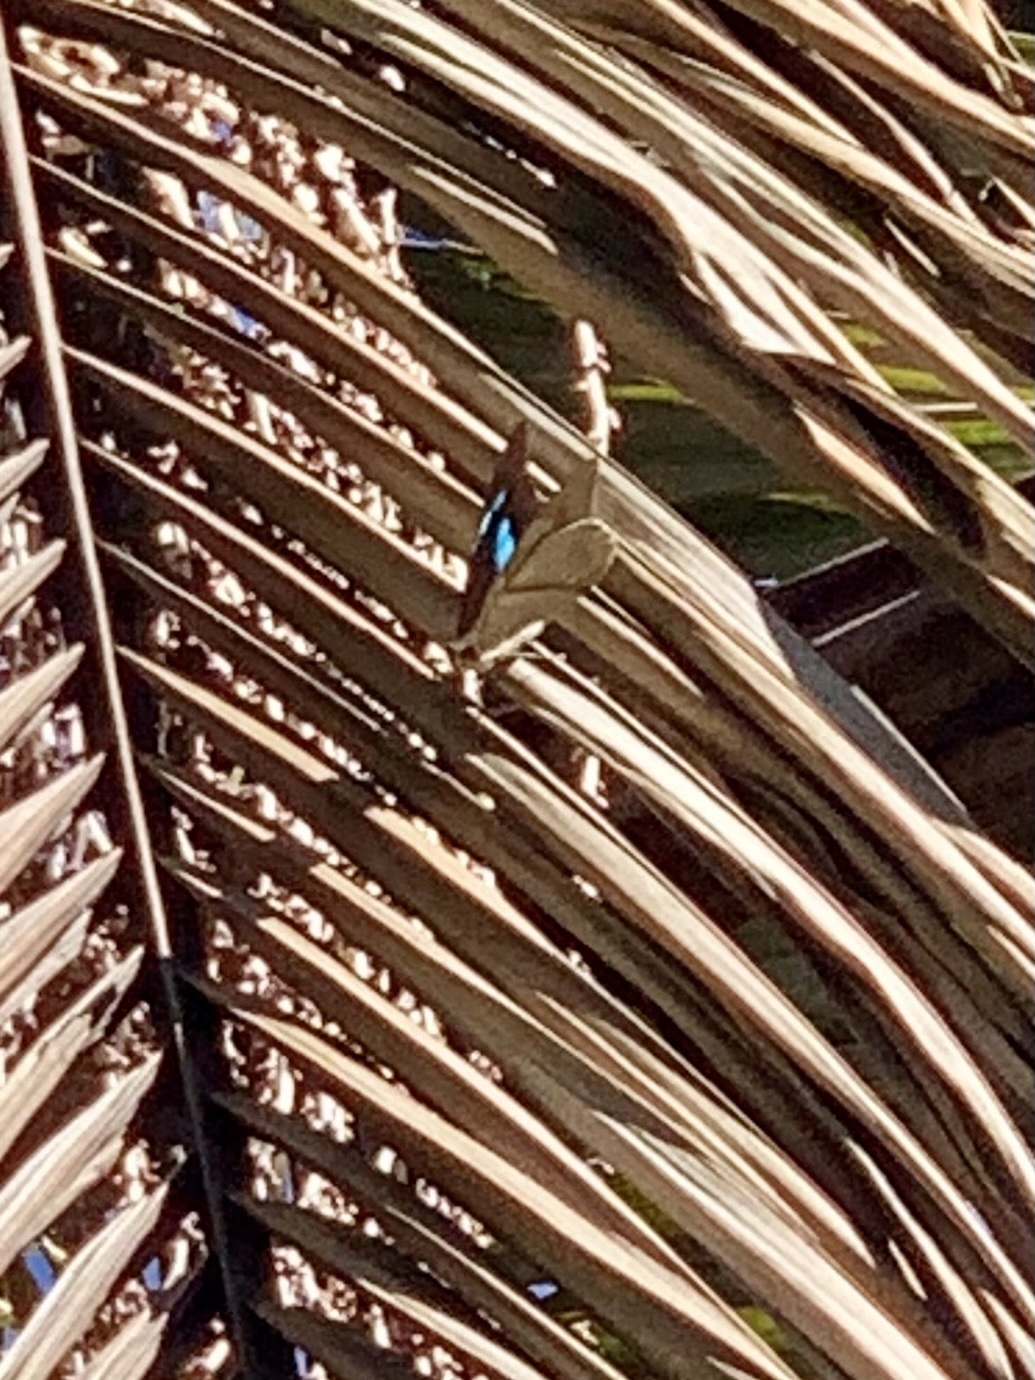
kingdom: Animalia
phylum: Arthropoda
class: Insecta
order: Lepidoptera
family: Nymphalidae
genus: Prepona
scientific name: Prepona meander
